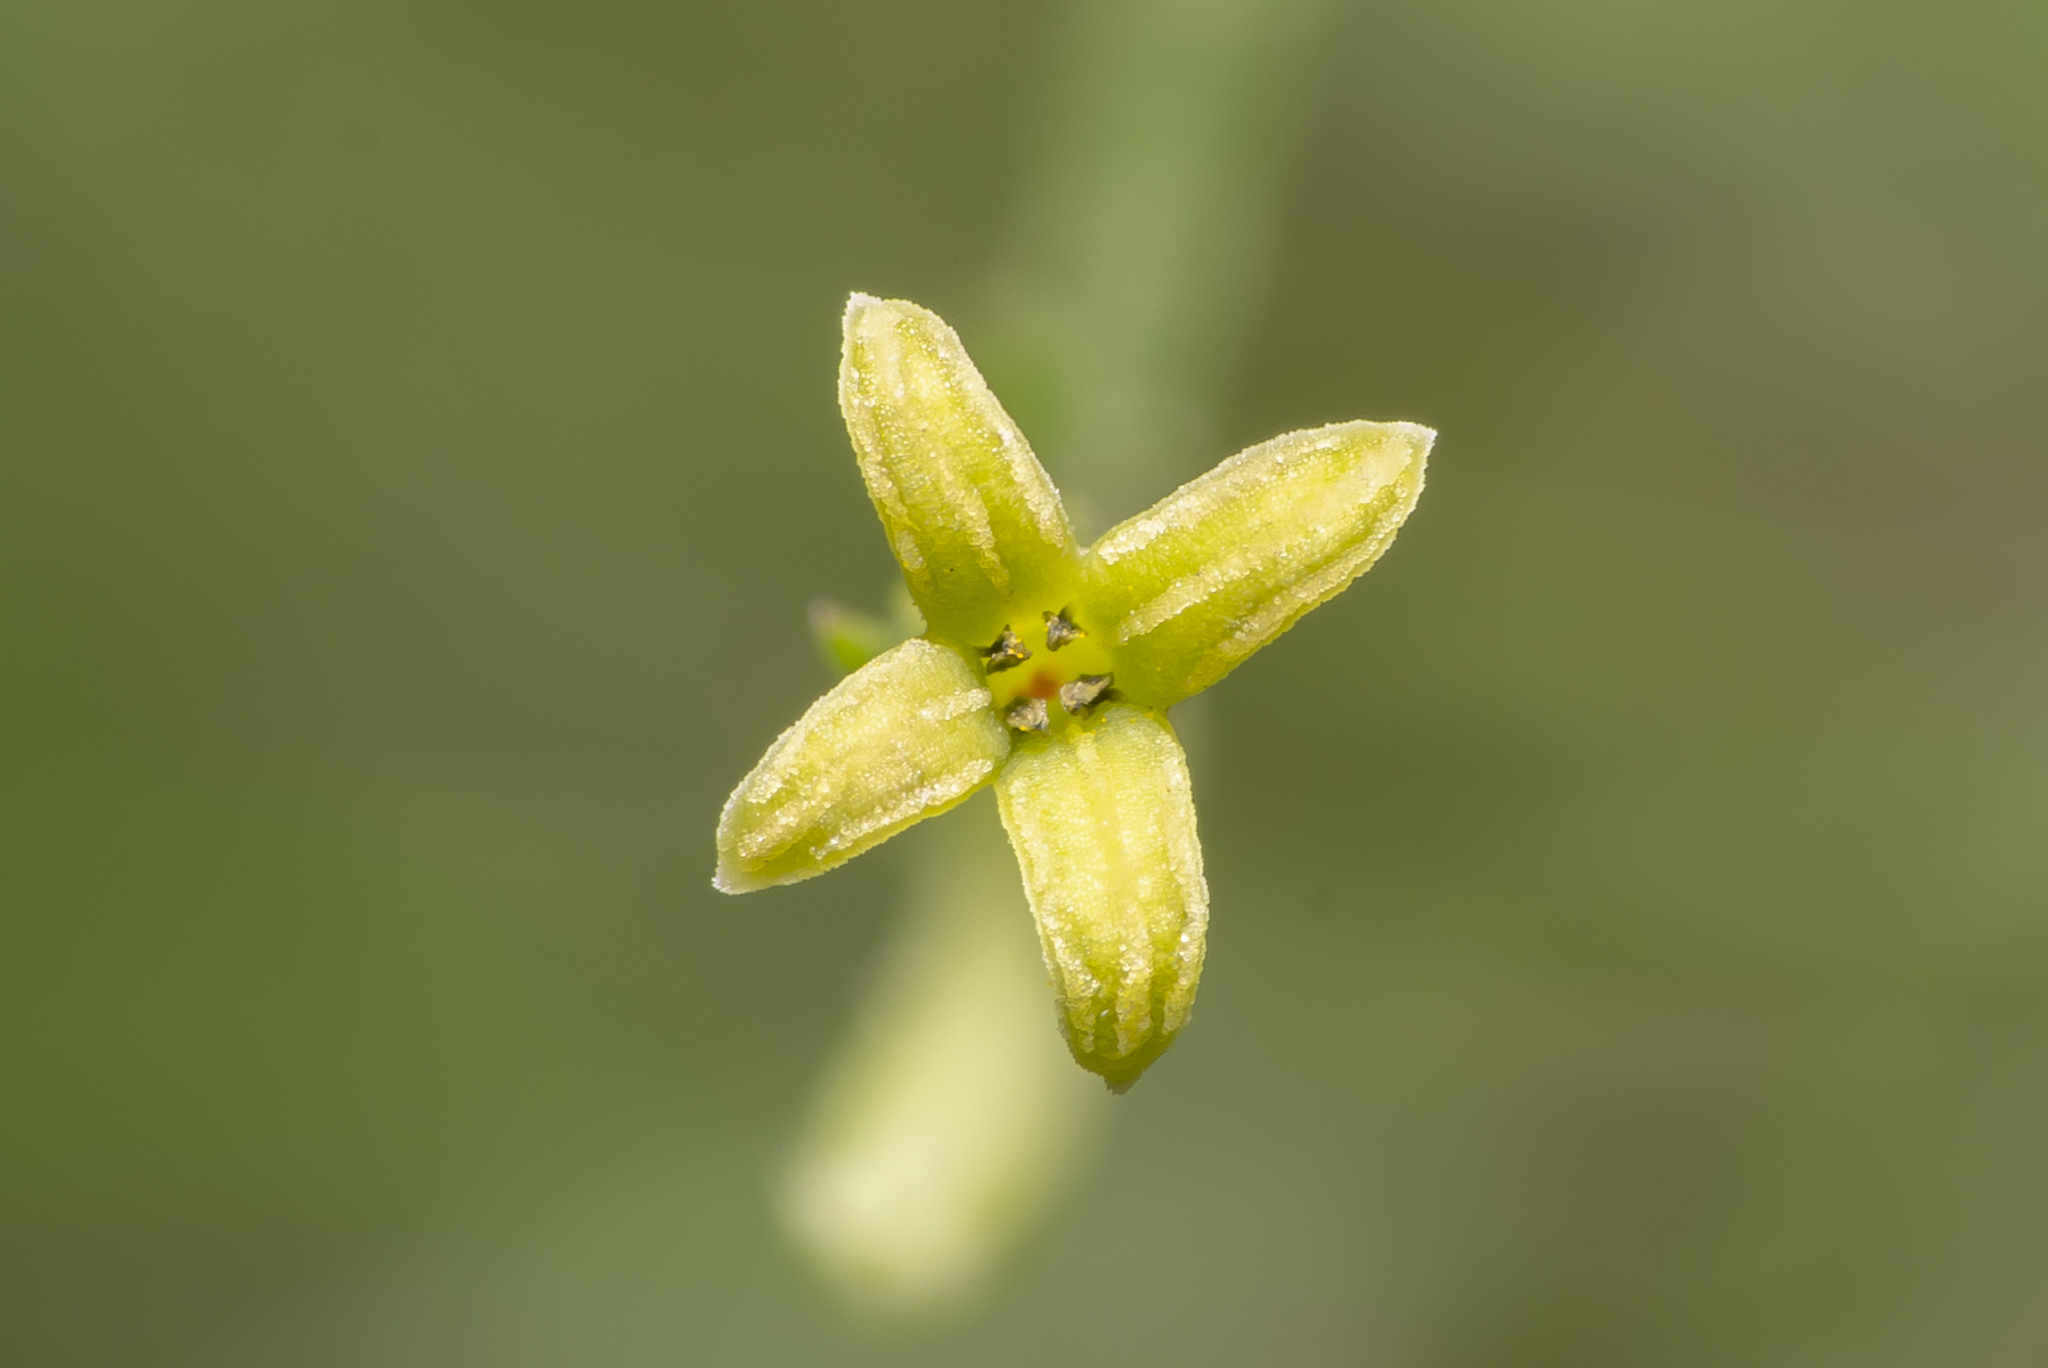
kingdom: Plantae
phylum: Tracheophyta
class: Magnoliopsida
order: Gentianales
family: Rubiaceae
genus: Thliphthisa
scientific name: Thliphthisa brevifolia
